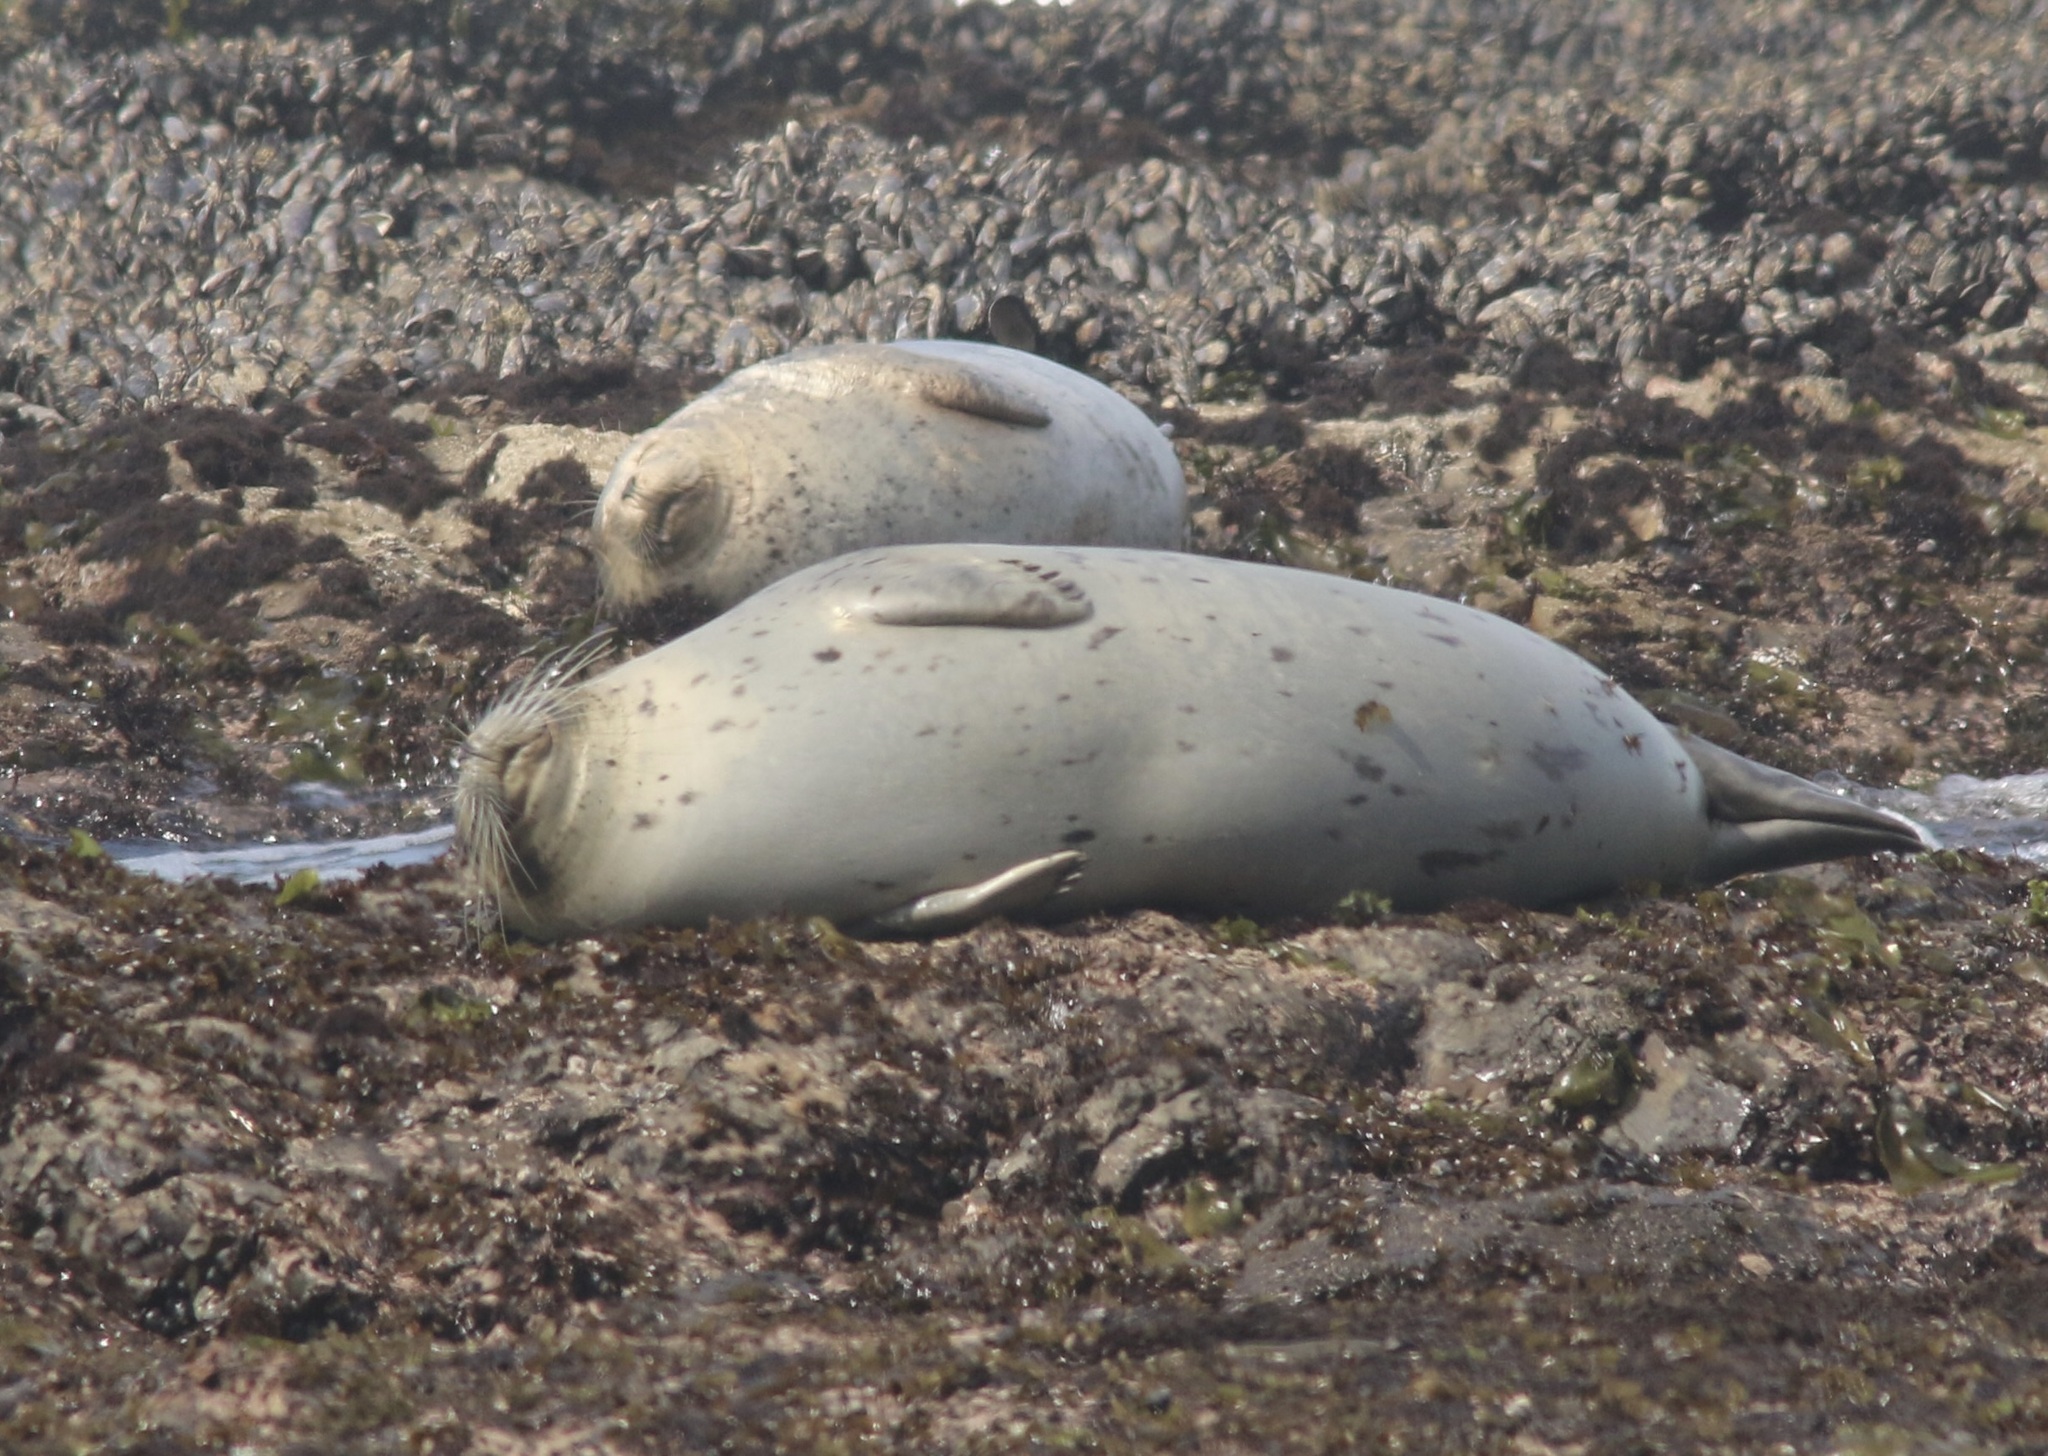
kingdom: Animalia
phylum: Chordata
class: Mammalia
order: Carnivora
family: Phocidae
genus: Phoca
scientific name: Phoca vitulina
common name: Harbor seal
